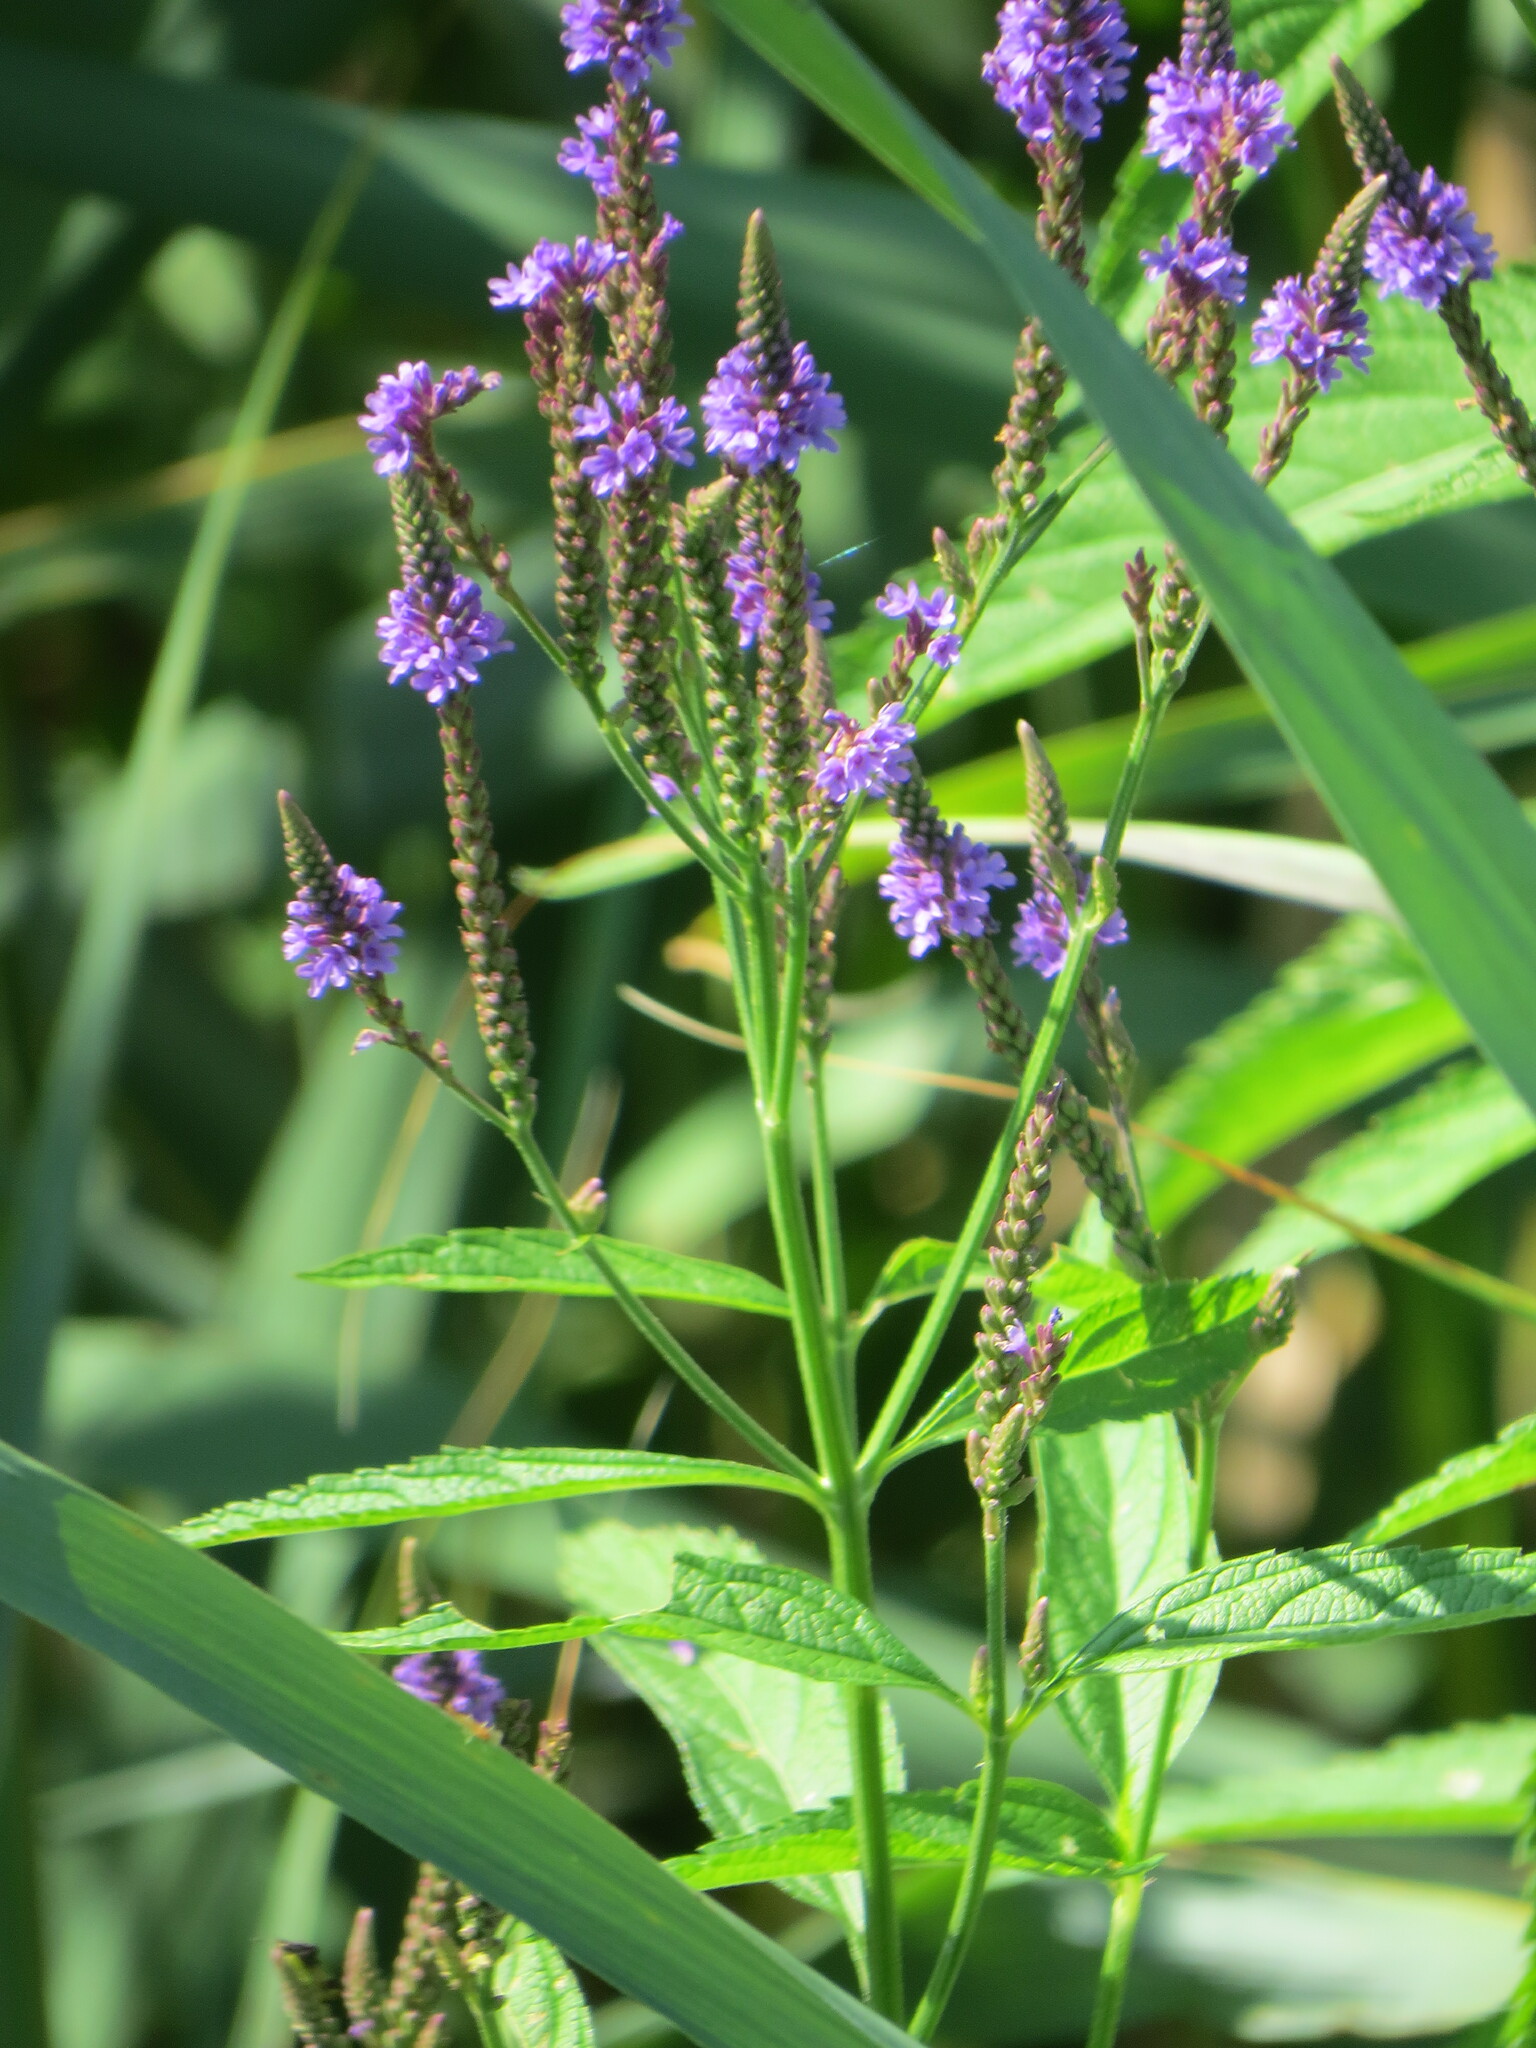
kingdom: Plantae
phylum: Tracheophyta
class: Magnoliopsida
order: Lamiales
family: Verbenaceae
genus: Verbena
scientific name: Verbena hastata
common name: American blue vervain
